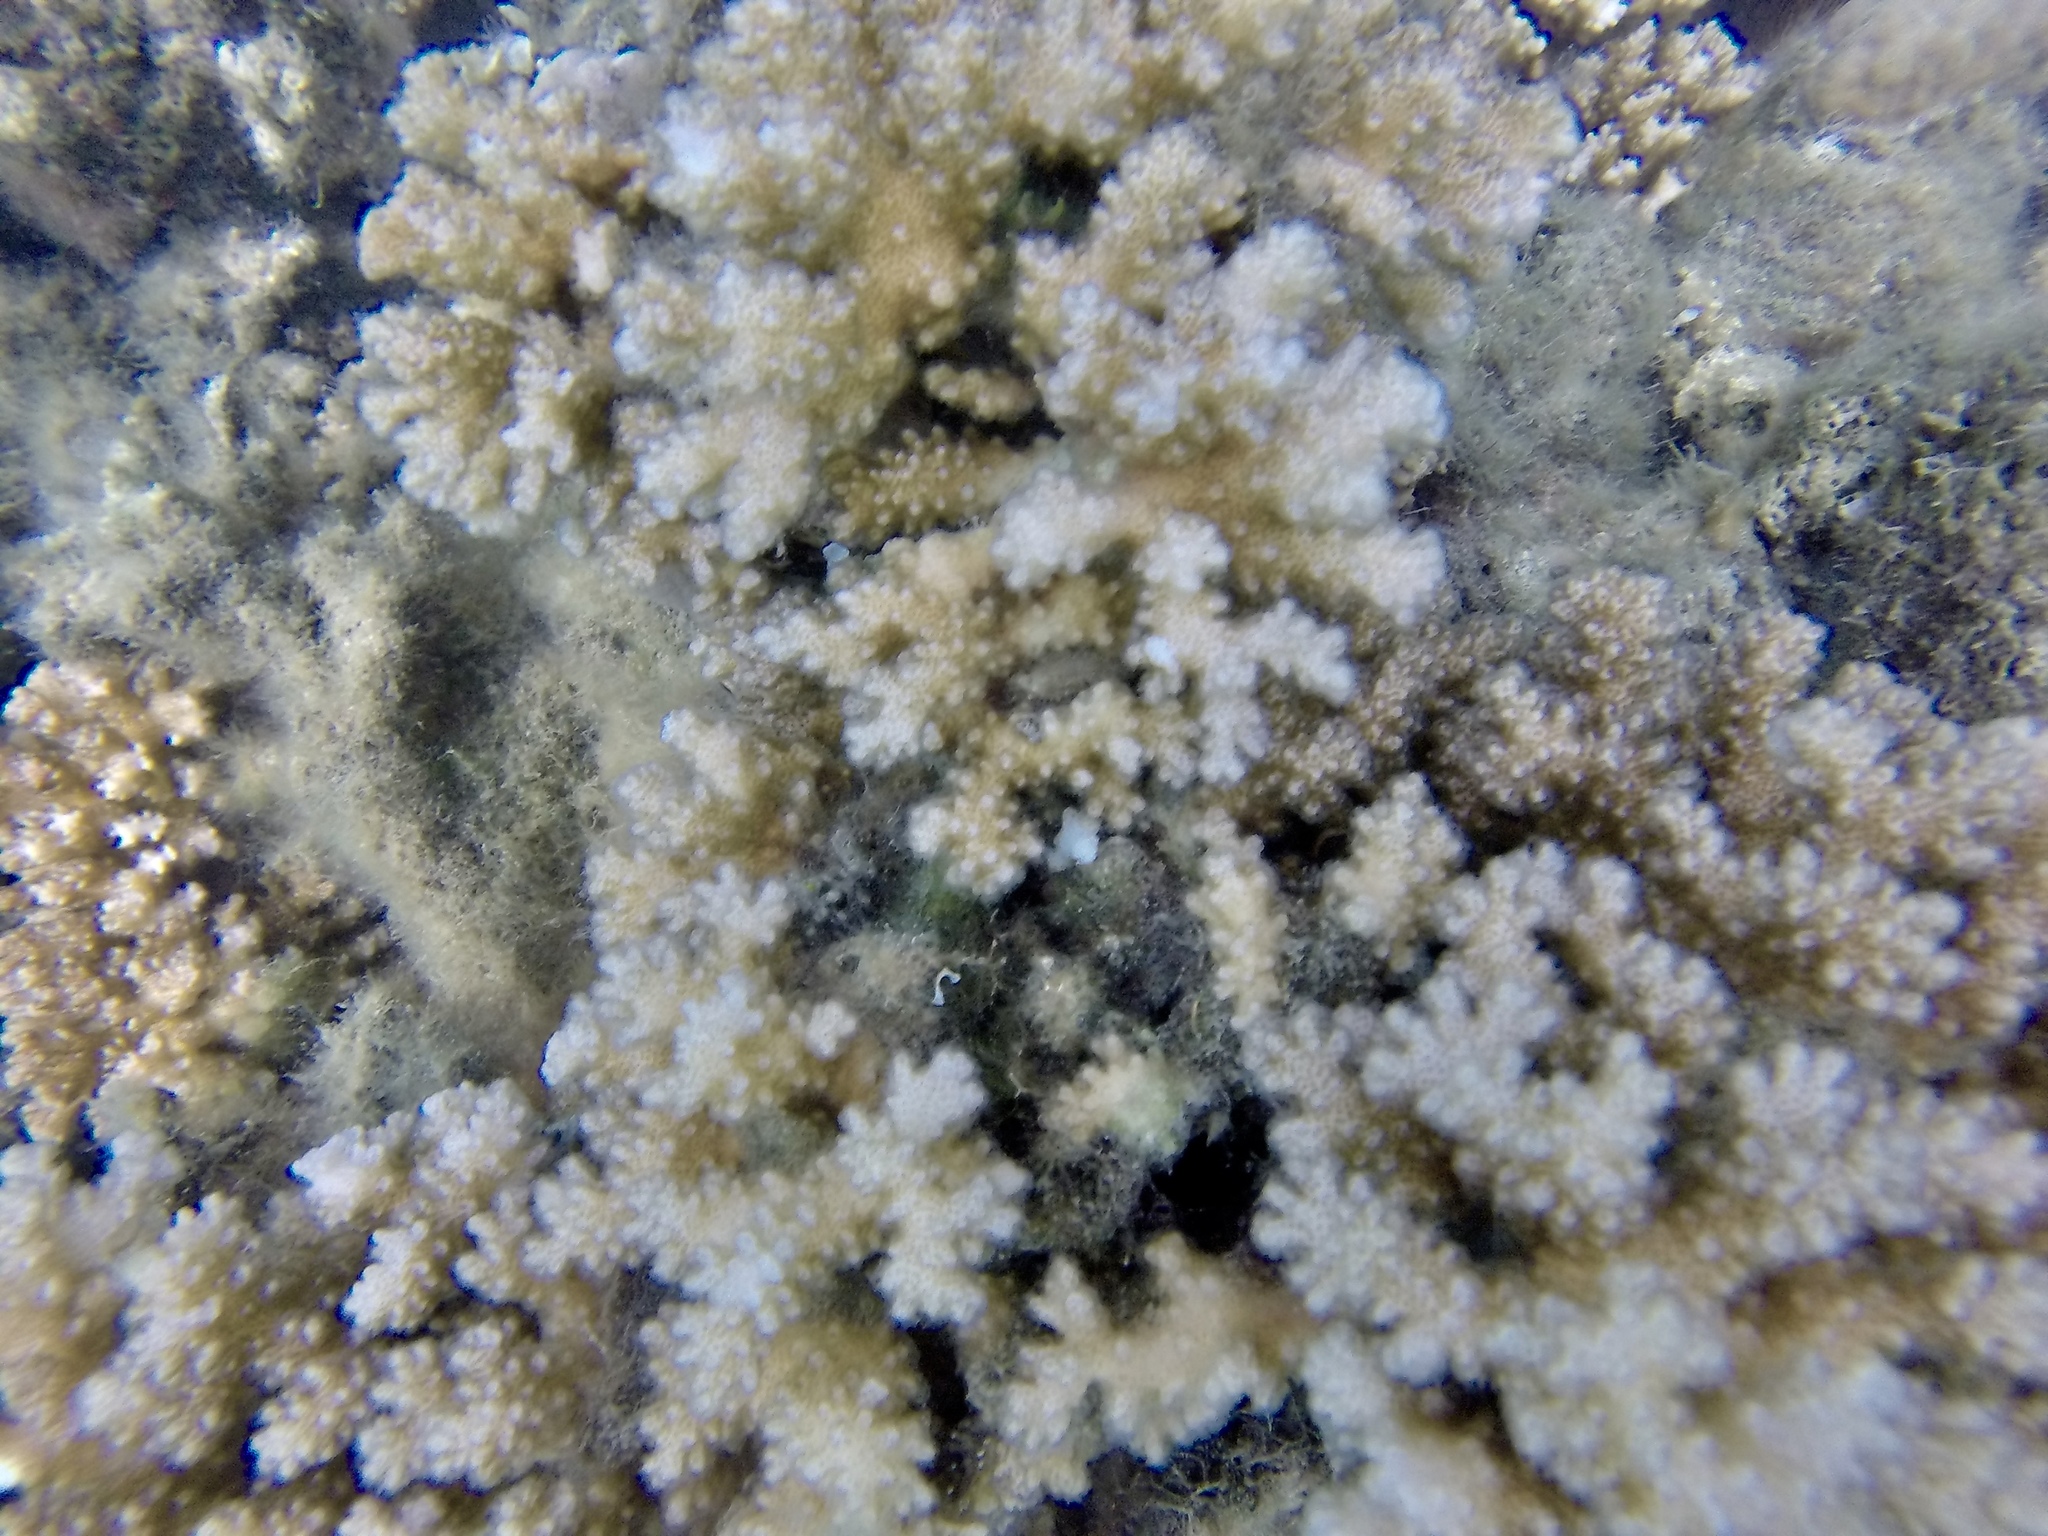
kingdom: Animalia
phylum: Cnidaria
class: Anthozoa
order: Scleractinia
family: Pocilloporidae
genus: Pocillopora
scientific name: Pocillopora damicornis
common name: Cauliflower coral
